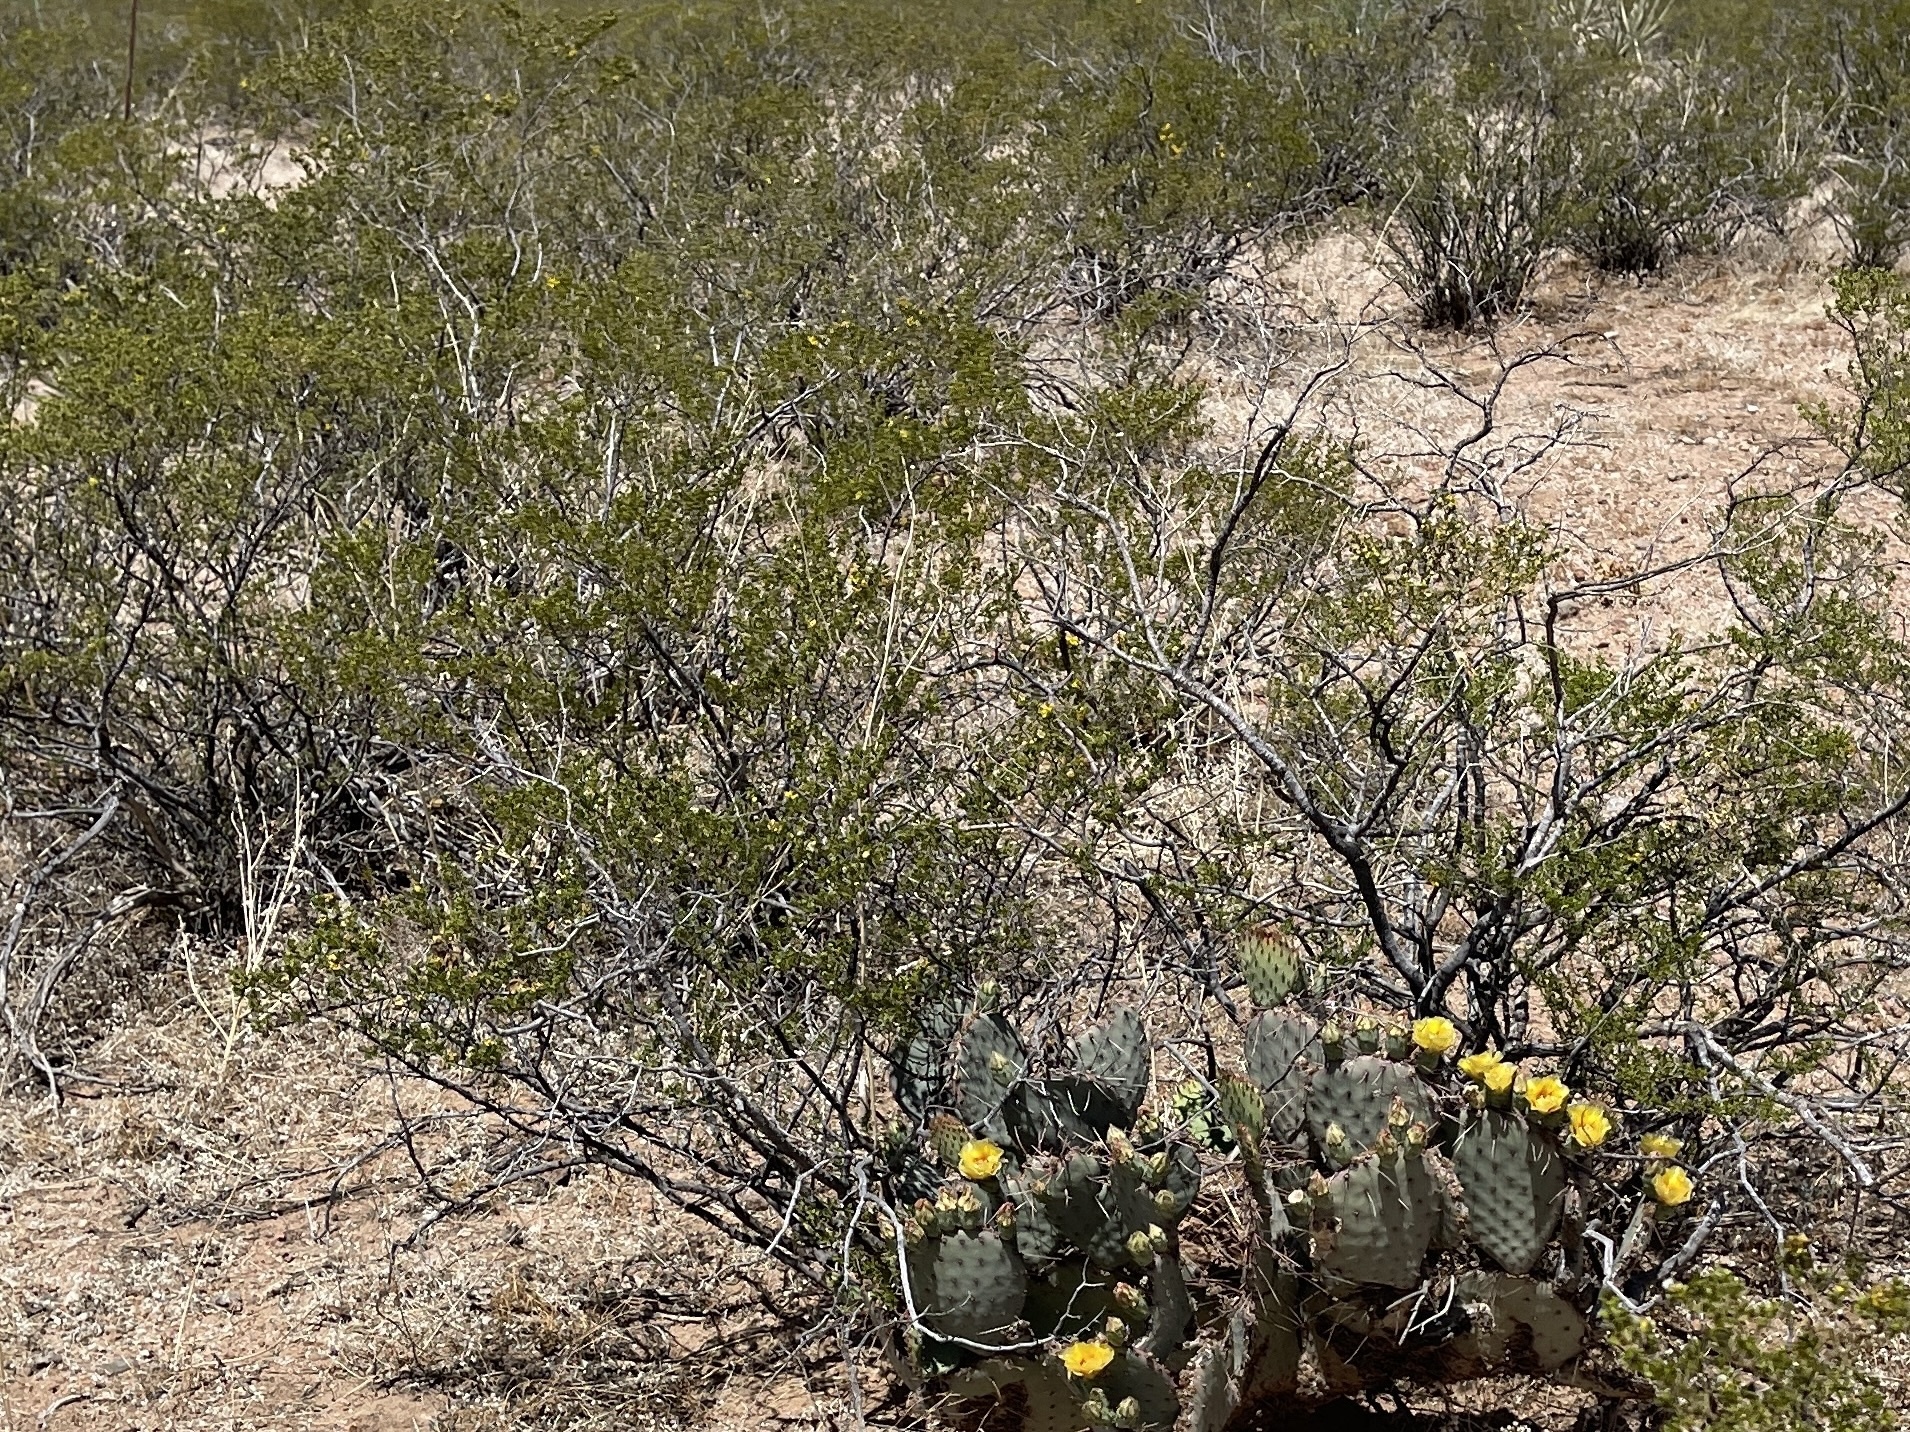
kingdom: Plantae
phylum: Tracheophyta
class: Magnoliopsida
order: Zygophyllales
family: Zygophyllaceae
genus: Larrea
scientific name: Larrea tridentata
